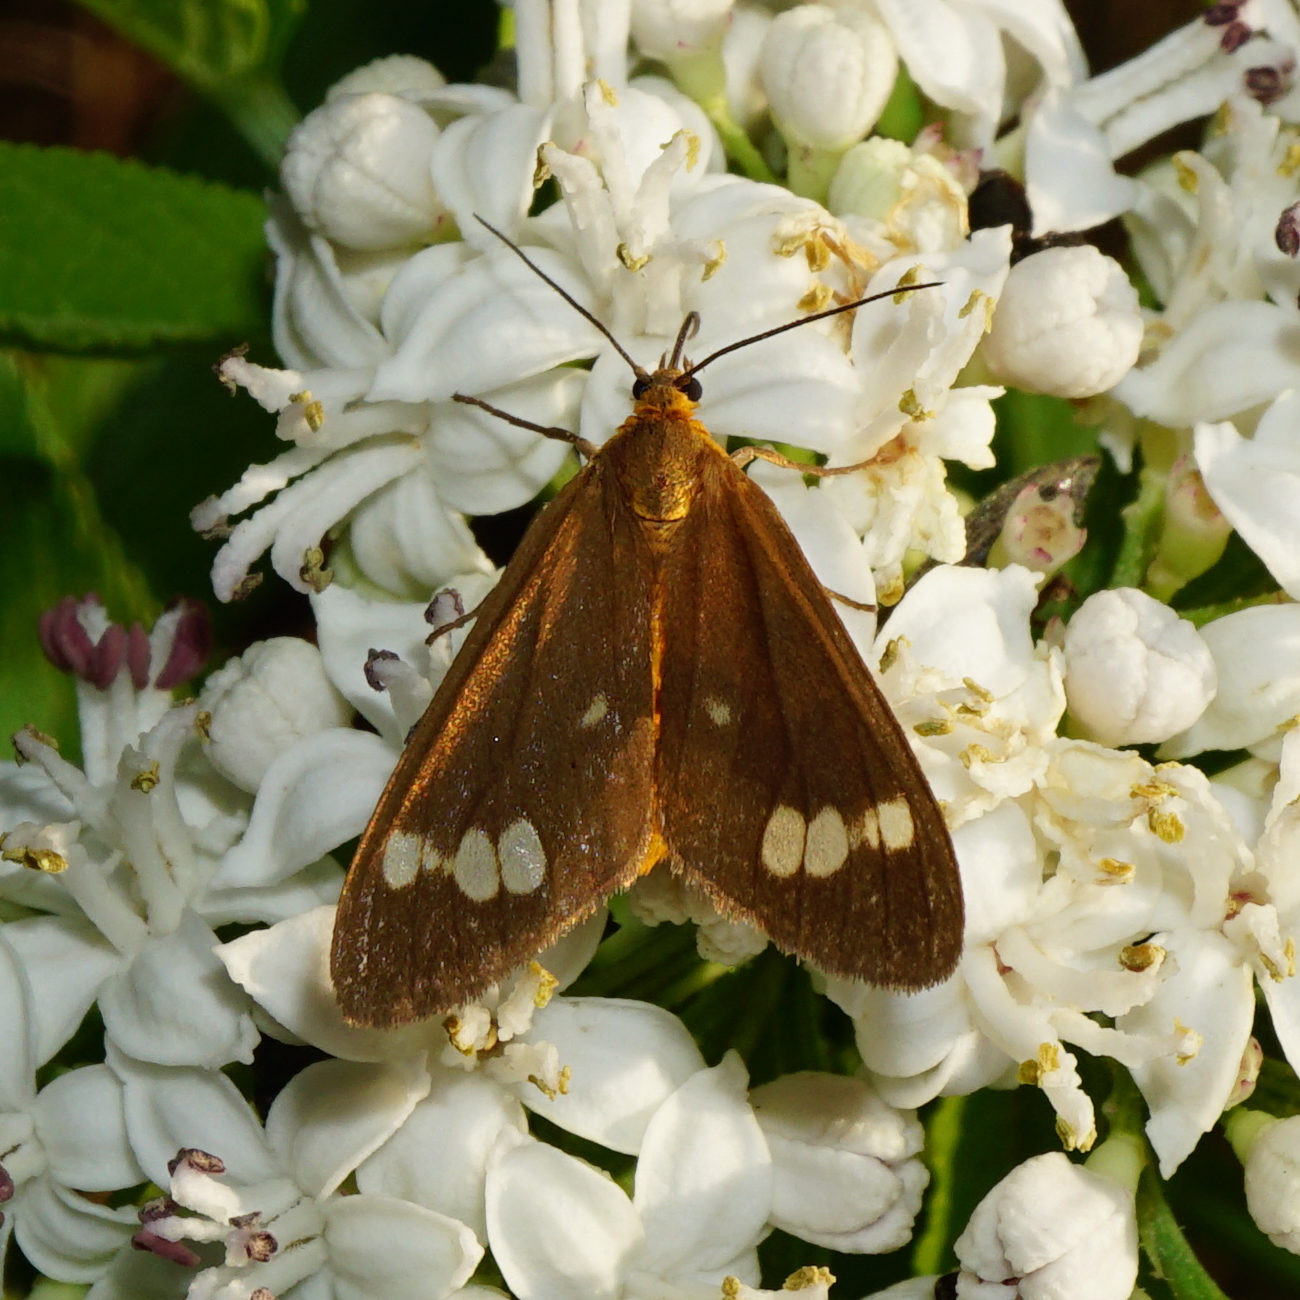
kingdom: Animalia
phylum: Arthropoda
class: Insecta
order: Lepidoptera
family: Erebidae
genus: Dysauxes
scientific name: Dysauxes ancilla
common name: The handmaid
